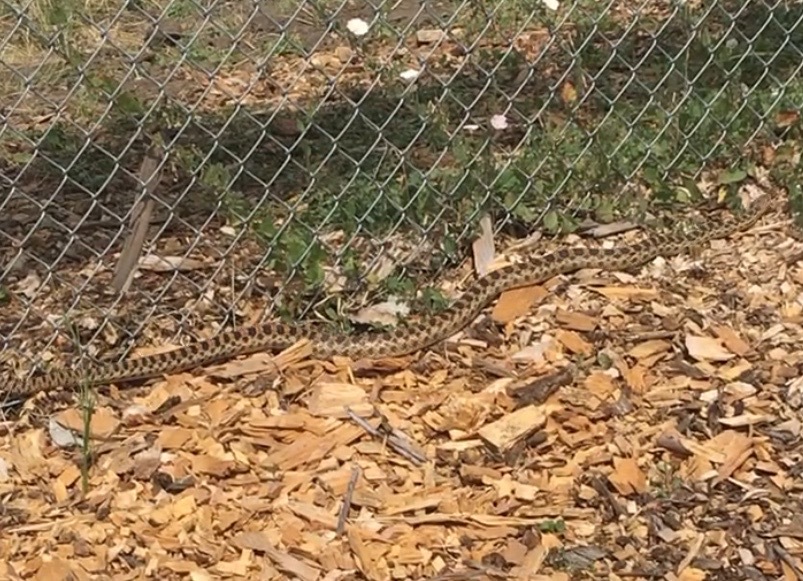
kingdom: Animalia
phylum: Chordata
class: Squamata
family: Colubridae
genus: Pituophis
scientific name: Pituophis catenifer
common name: Gopher snake
